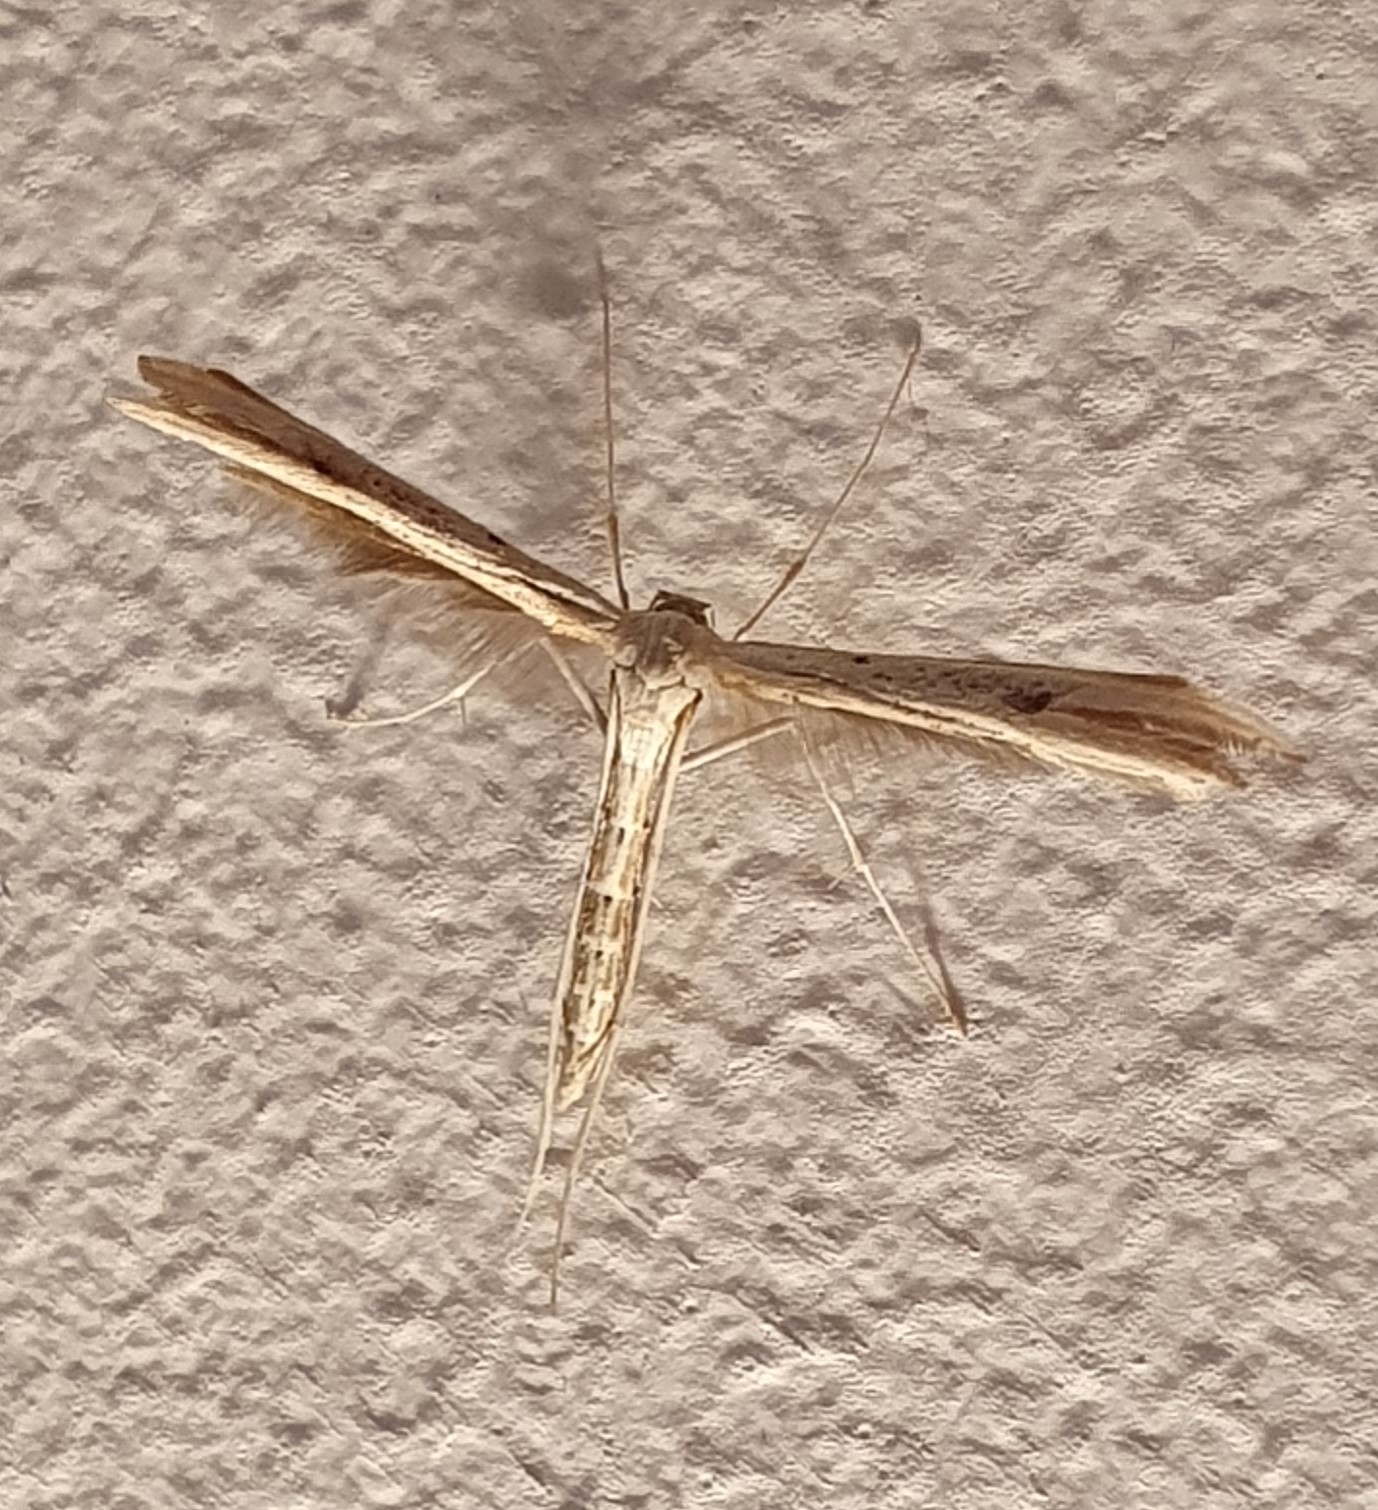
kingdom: Animalia
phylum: Arthropoda
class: Insecta
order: Lepidoptera
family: Pterophoridae
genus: Emmelina
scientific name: Emmelina monodactyla
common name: Common plume
